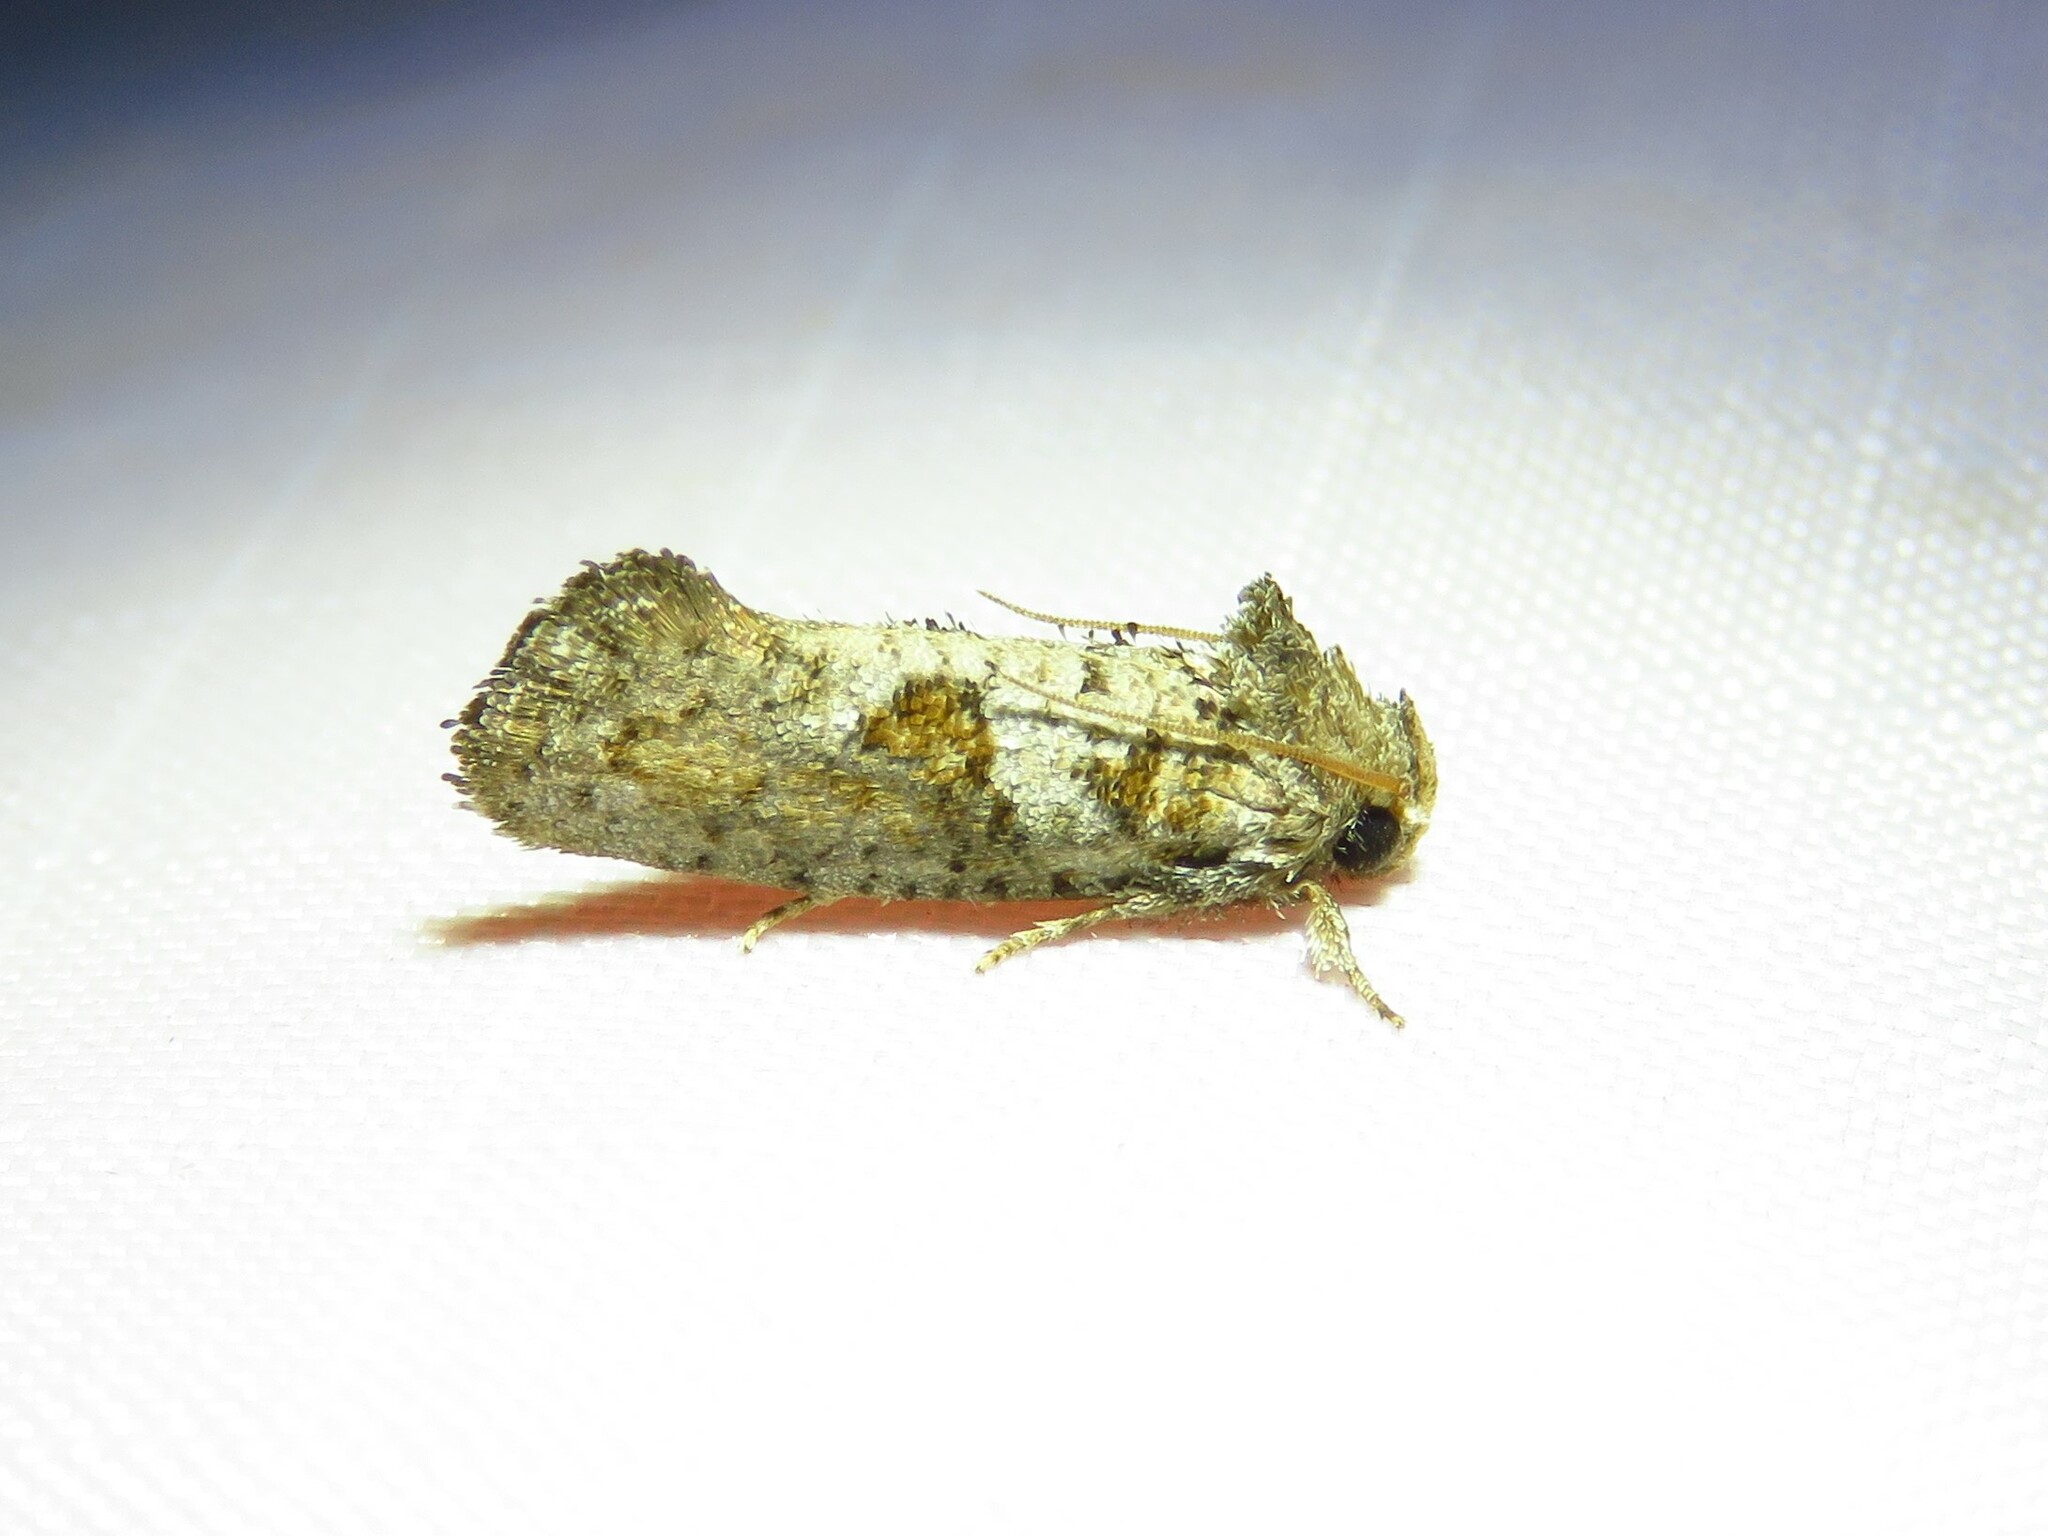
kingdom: Animalia
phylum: Arthropoda
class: Insecta
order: Lepidoptera
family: Tineidae
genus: Acrolophus
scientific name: Acrolophus piger
